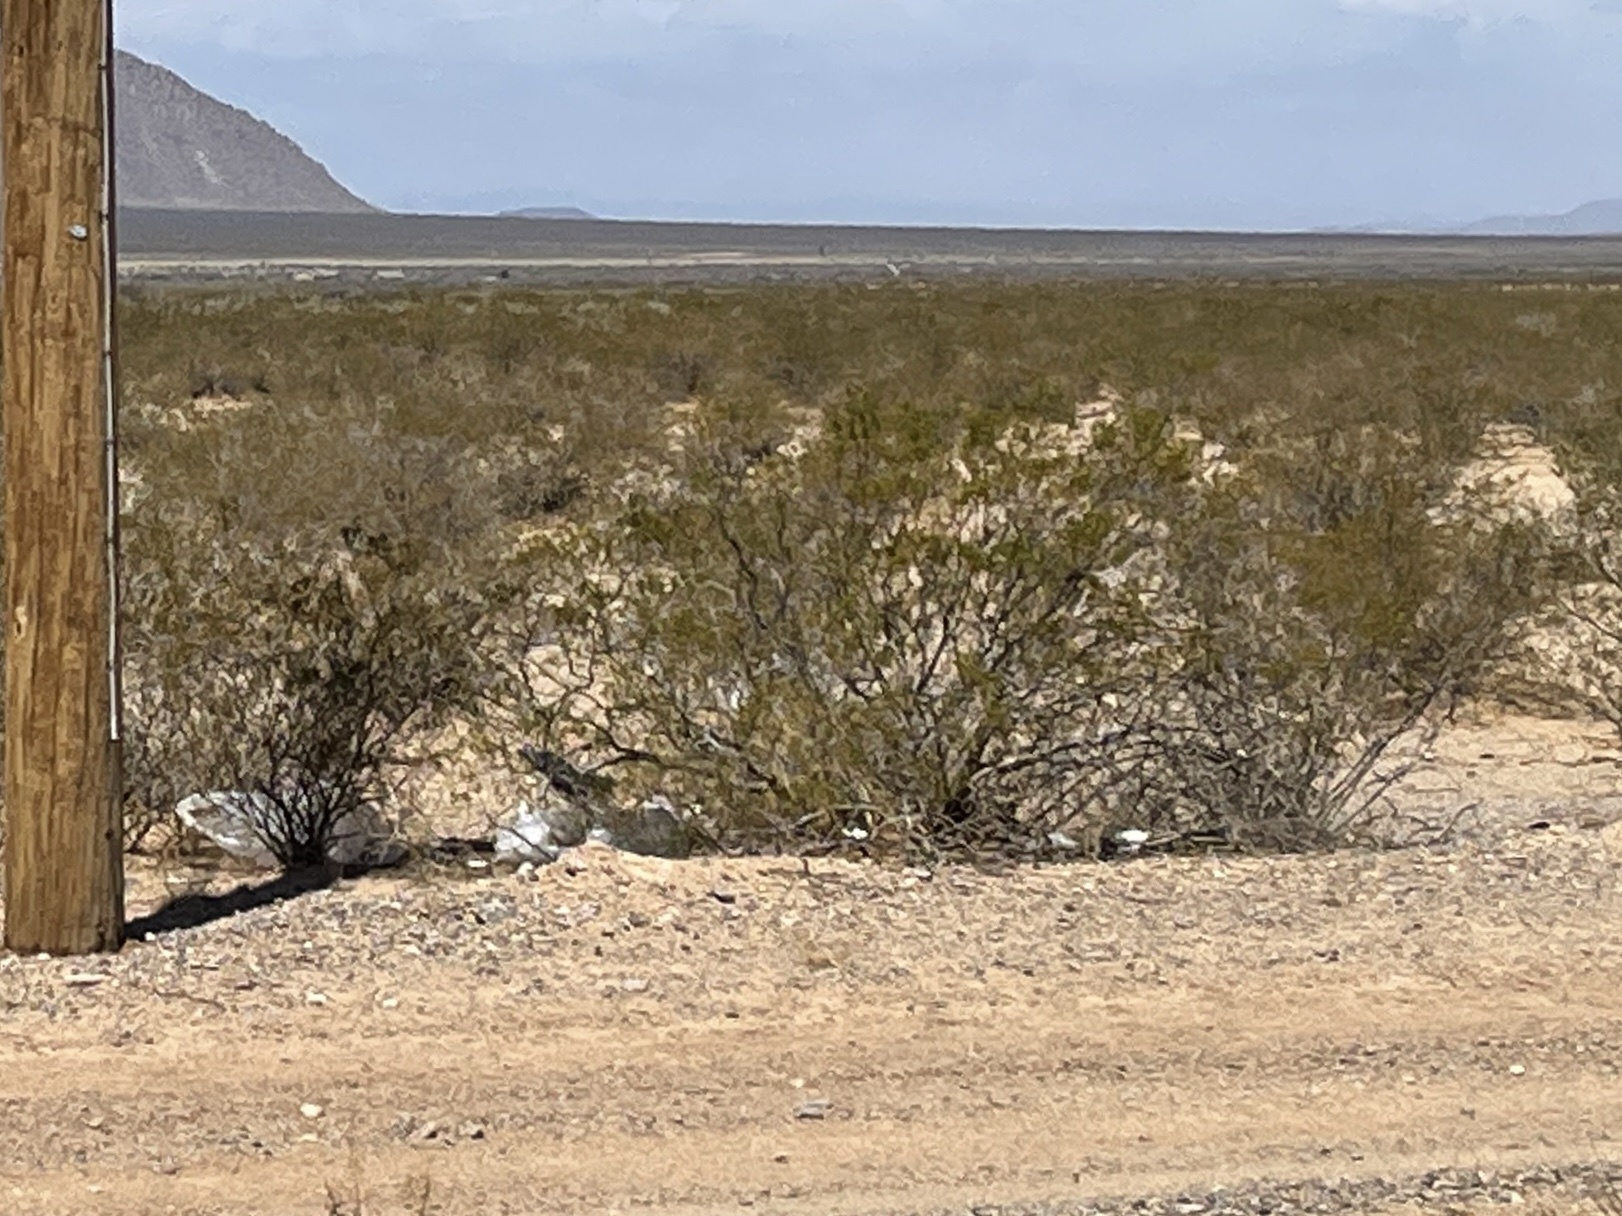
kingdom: Plantae
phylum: Tracheophyta
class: Magnoliopsida
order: Zygophyllales
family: Zygophyllaceae
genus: Larrea
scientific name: Larrea tridentata
